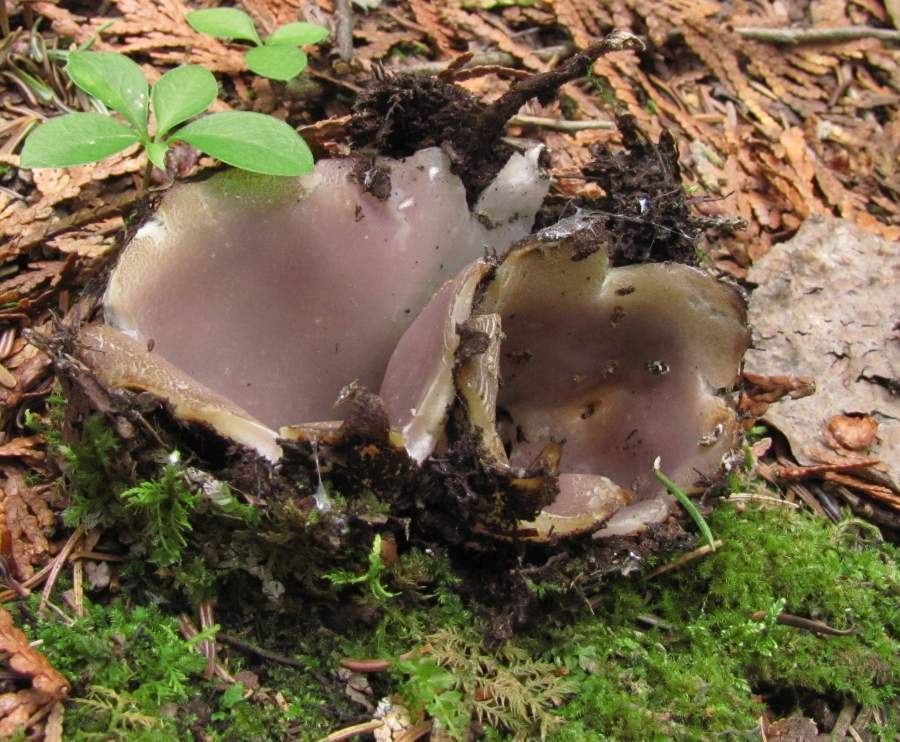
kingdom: Fungi
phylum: Ascomycota
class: Pezizomycetes
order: Pezizales
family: Pezizaceae
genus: Sarcosphaera
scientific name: Sarcosphaera coronaria
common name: Violet crowncup
